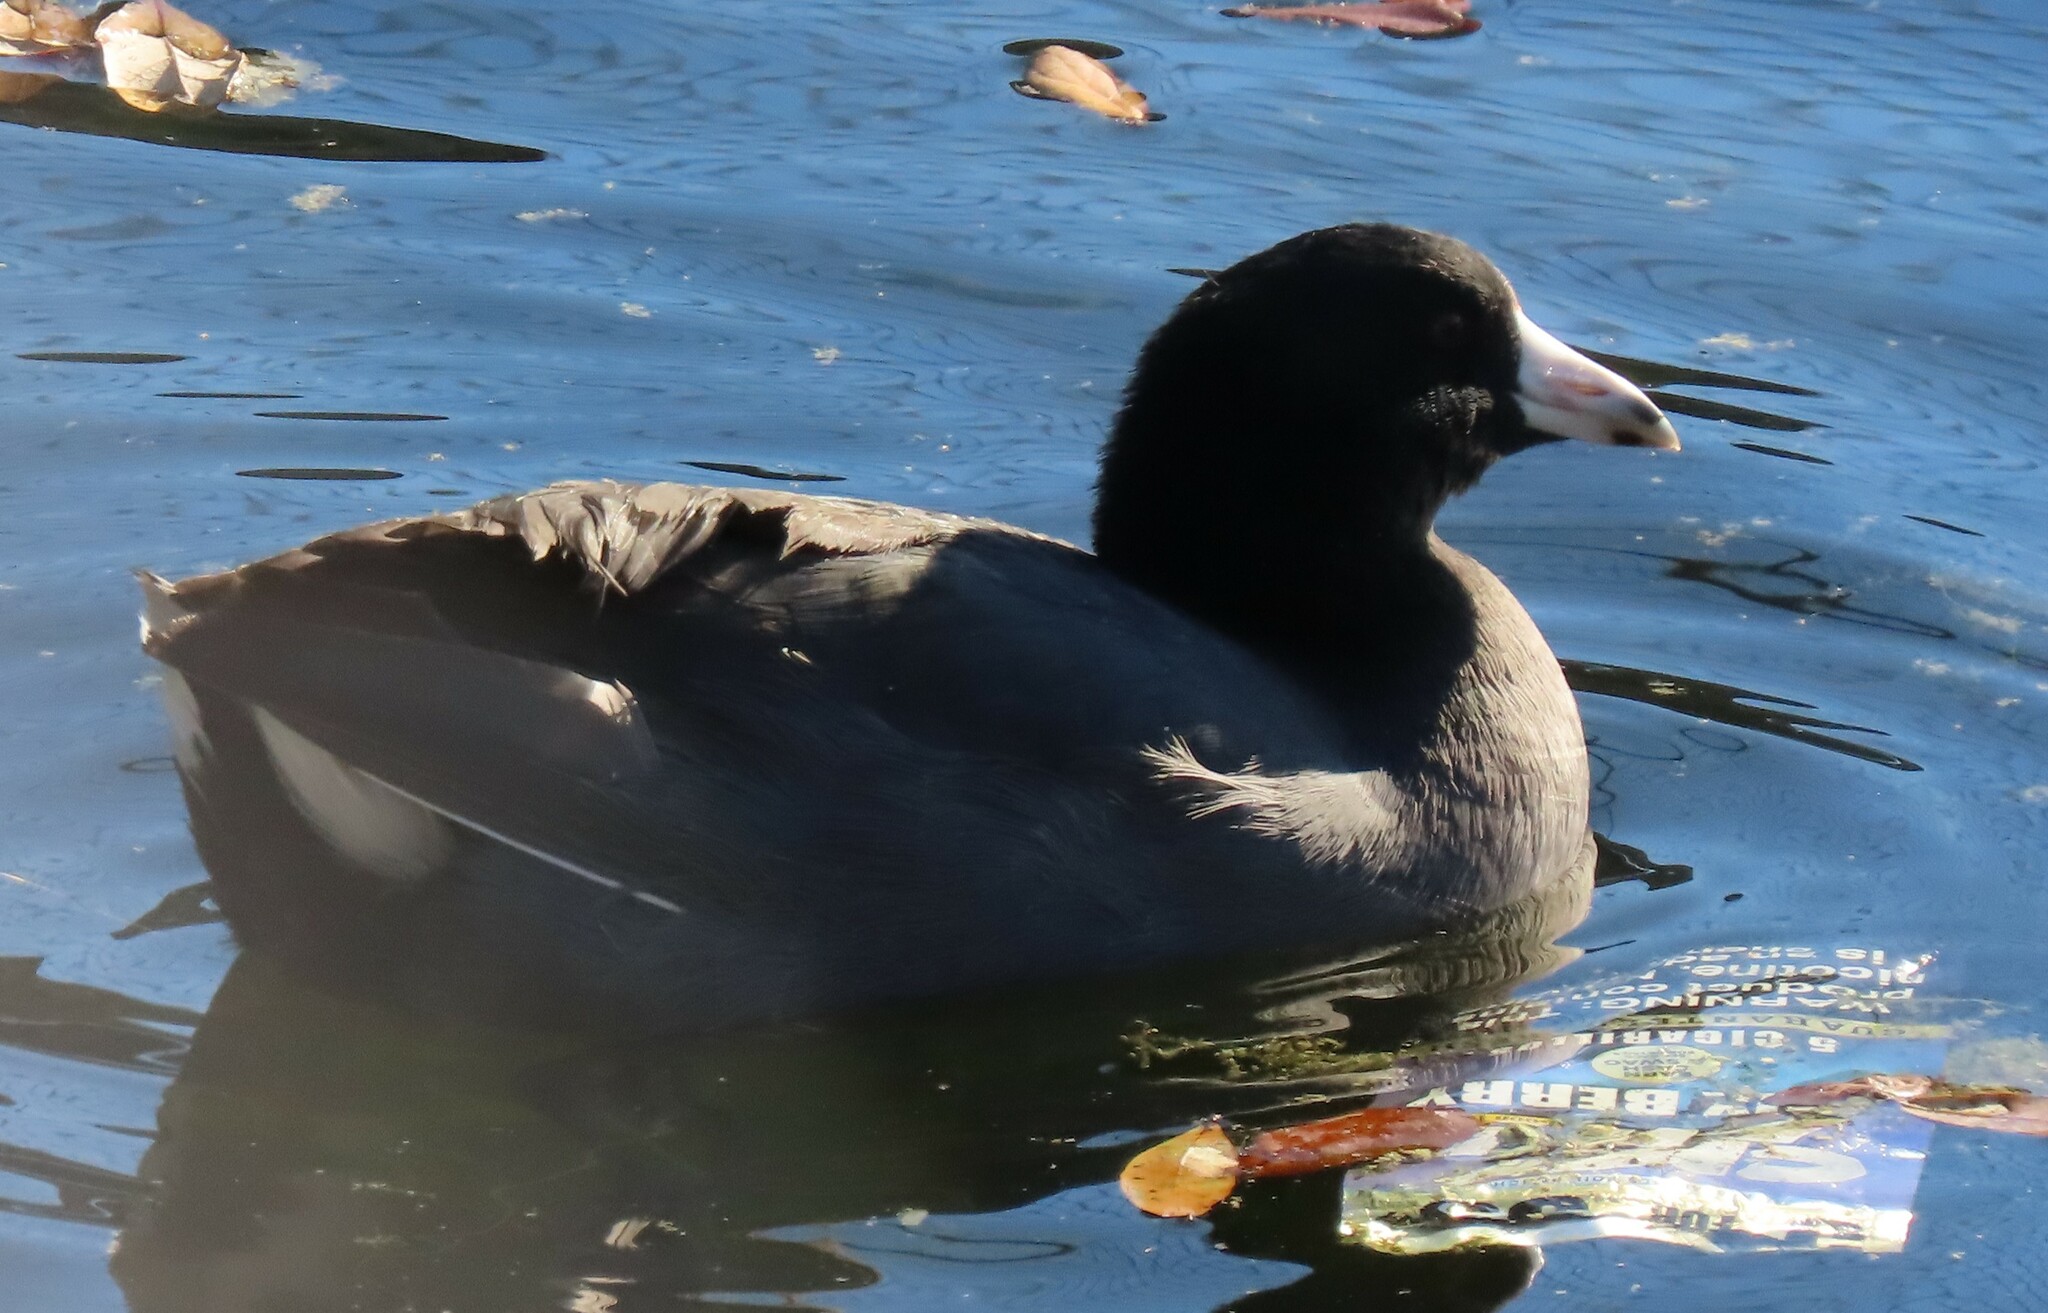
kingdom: Animalia
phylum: Chordata
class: Aves
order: Gruiformes
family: Rallidae
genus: Fulica
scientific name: Fulica americana
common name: American coot
